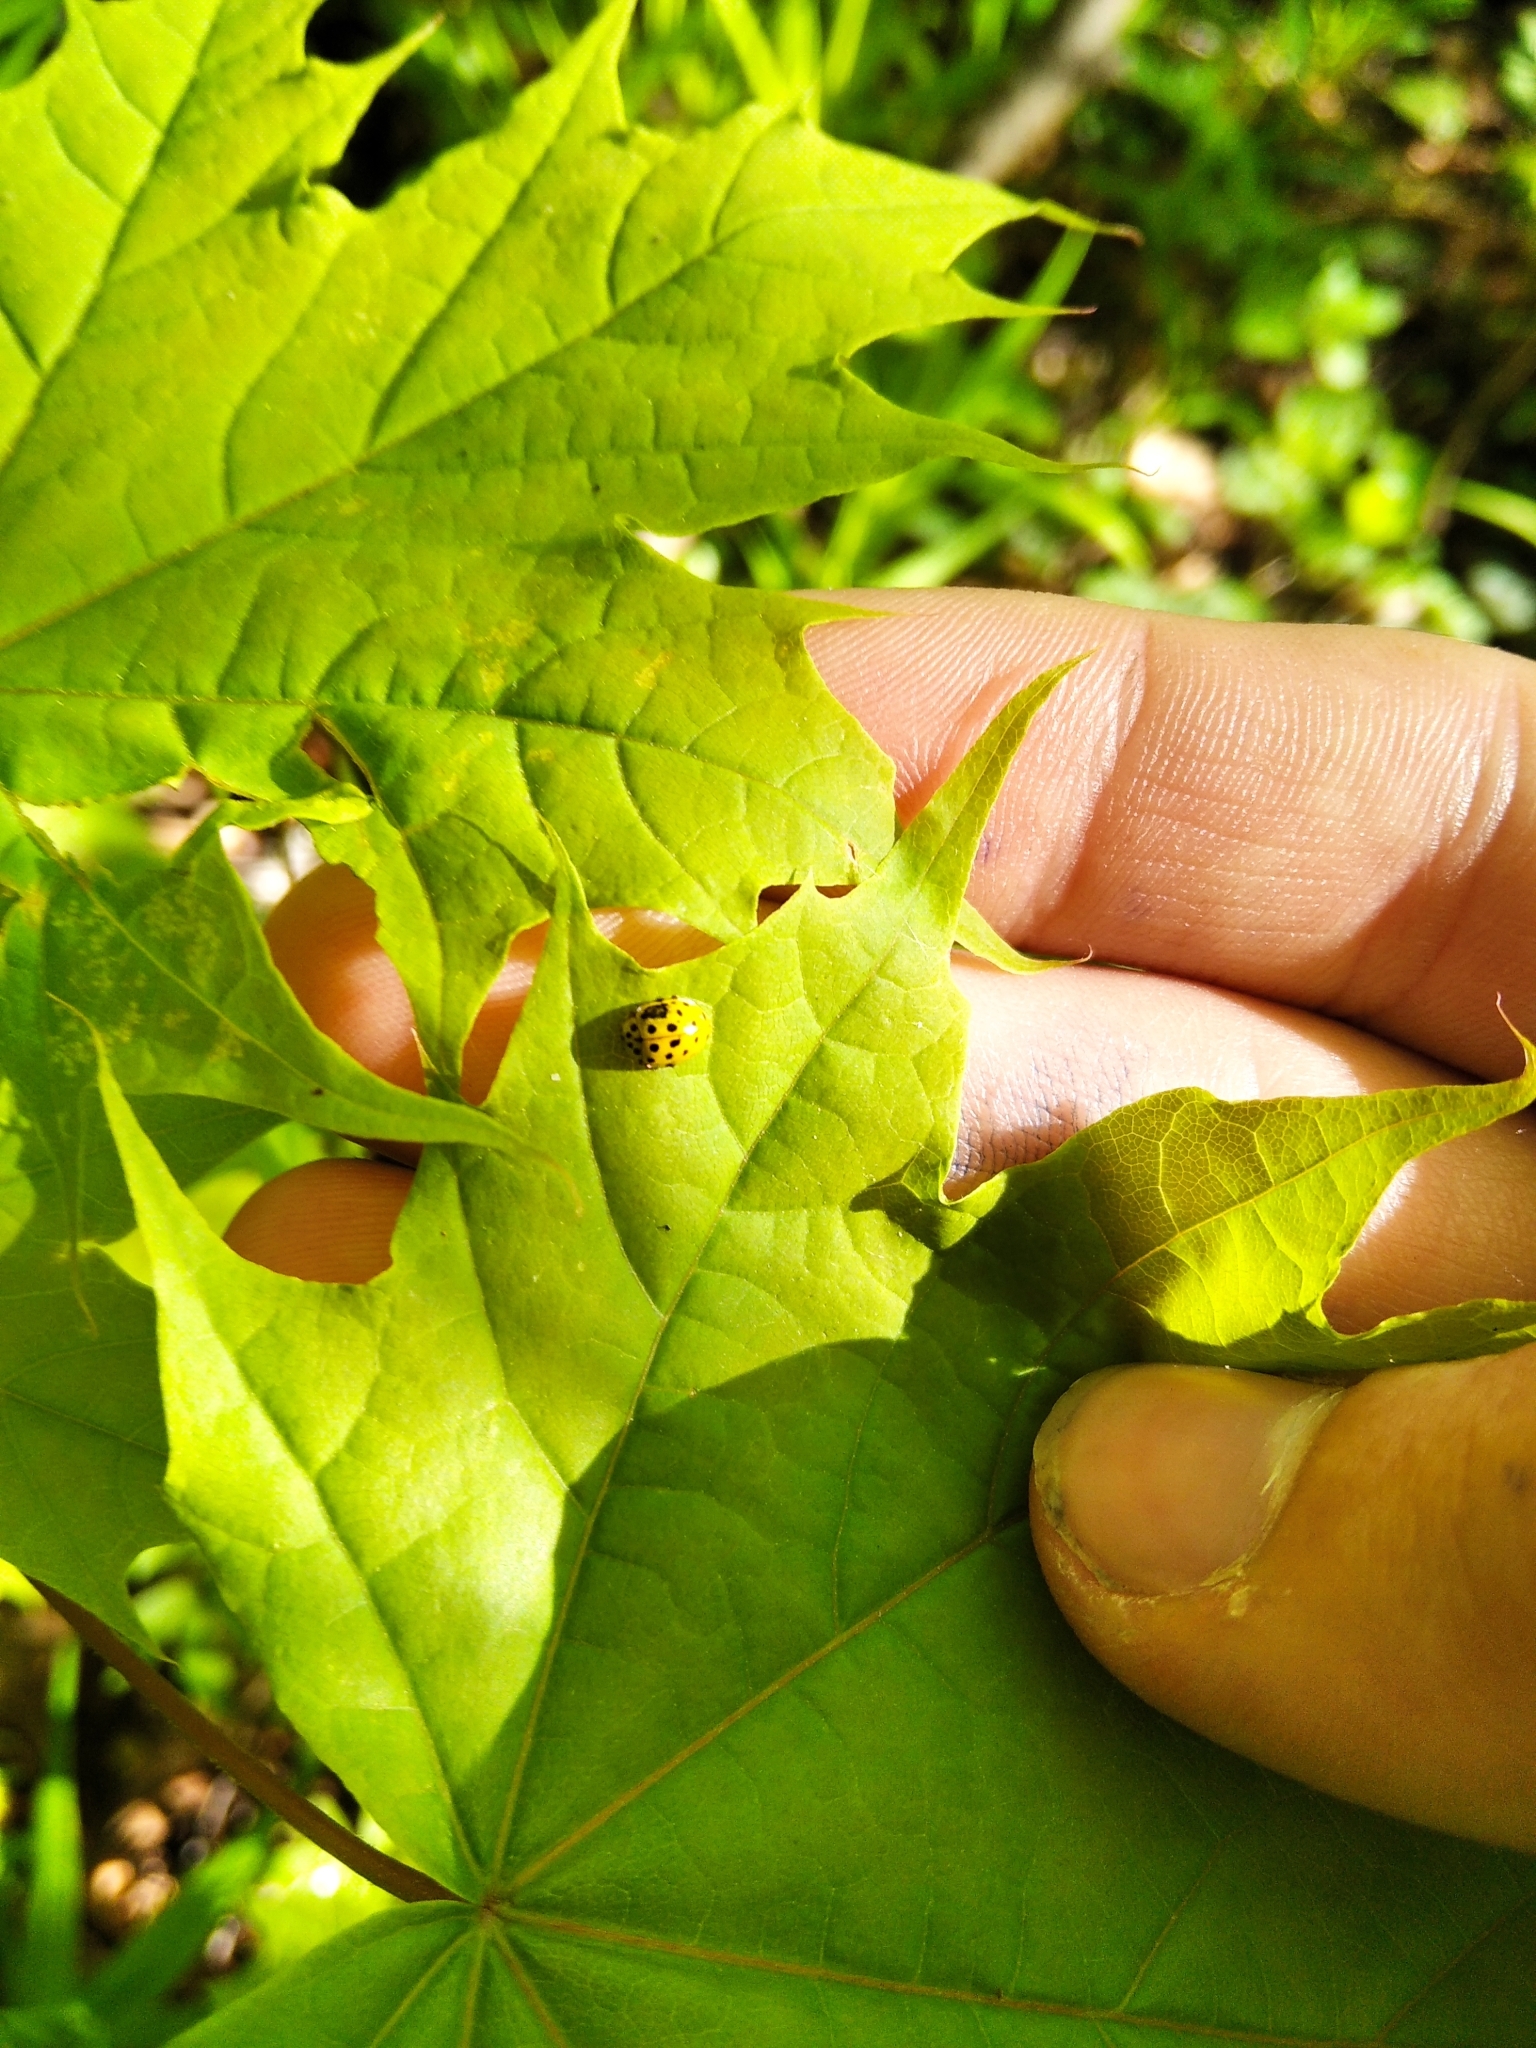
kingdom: Animalia
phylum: Arthropoda
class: Insecta
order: Coleoptera
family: Coccinellidae
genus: Psyllobora
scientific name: Psyllobora vigintiduopunctata
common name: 22-spot ladybird
